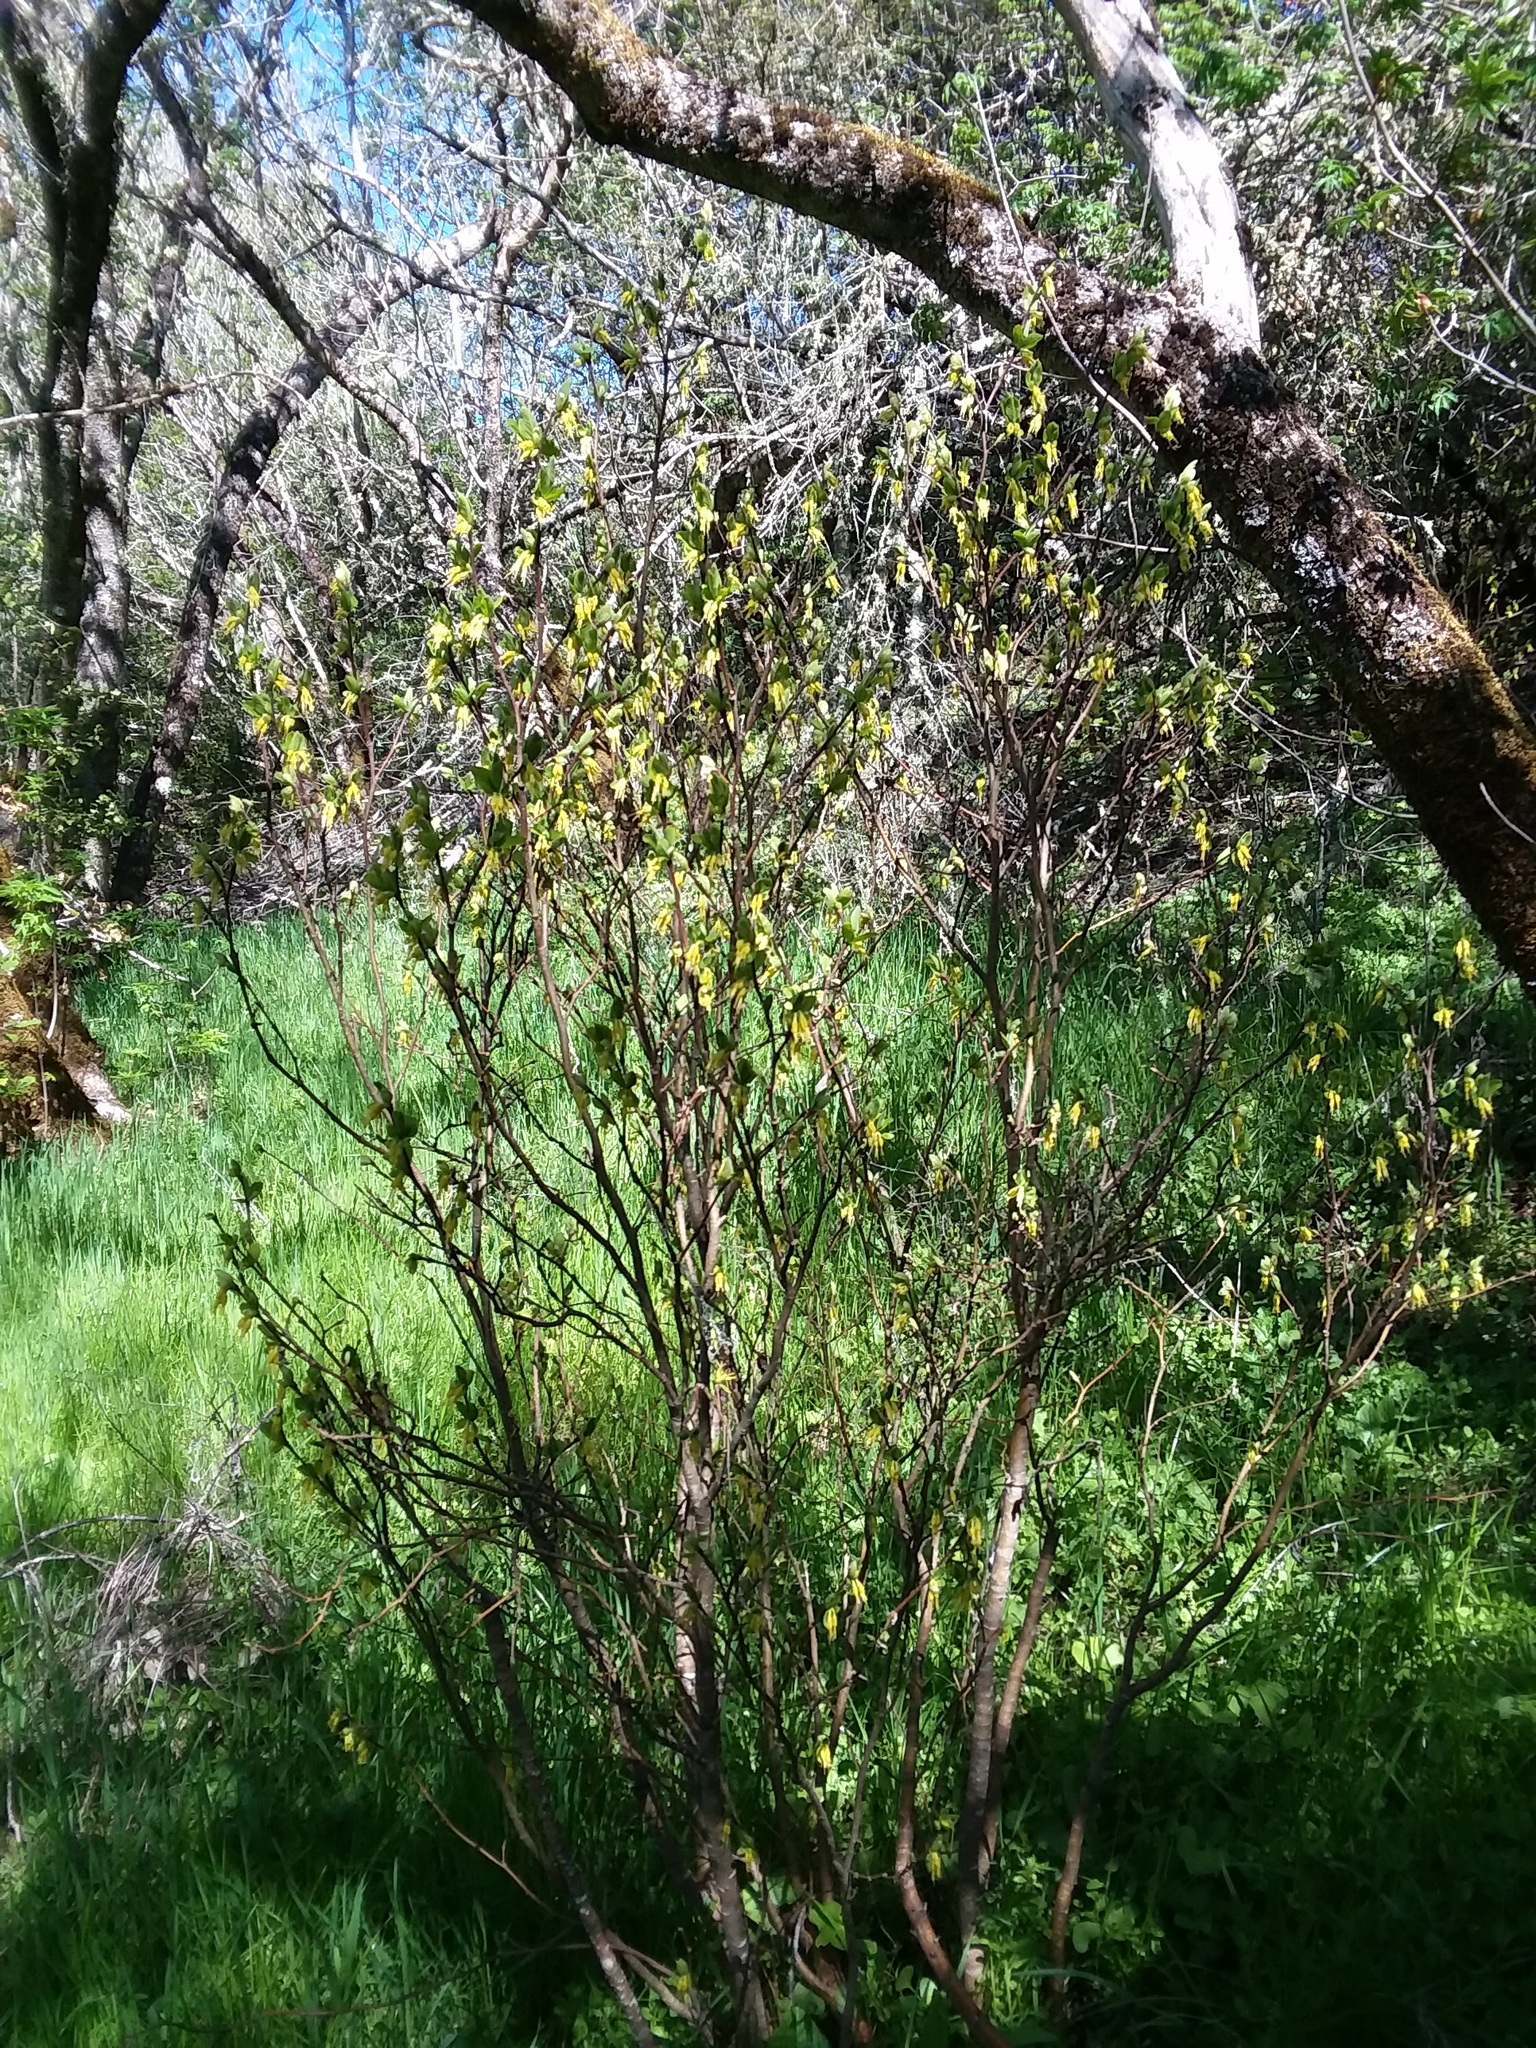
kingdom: Plantae
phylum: Tracheophyta
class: Magnoliopsida
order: Malvales
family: Thymelaeaceae
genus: Dirca
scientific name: Dirca occidentalis
